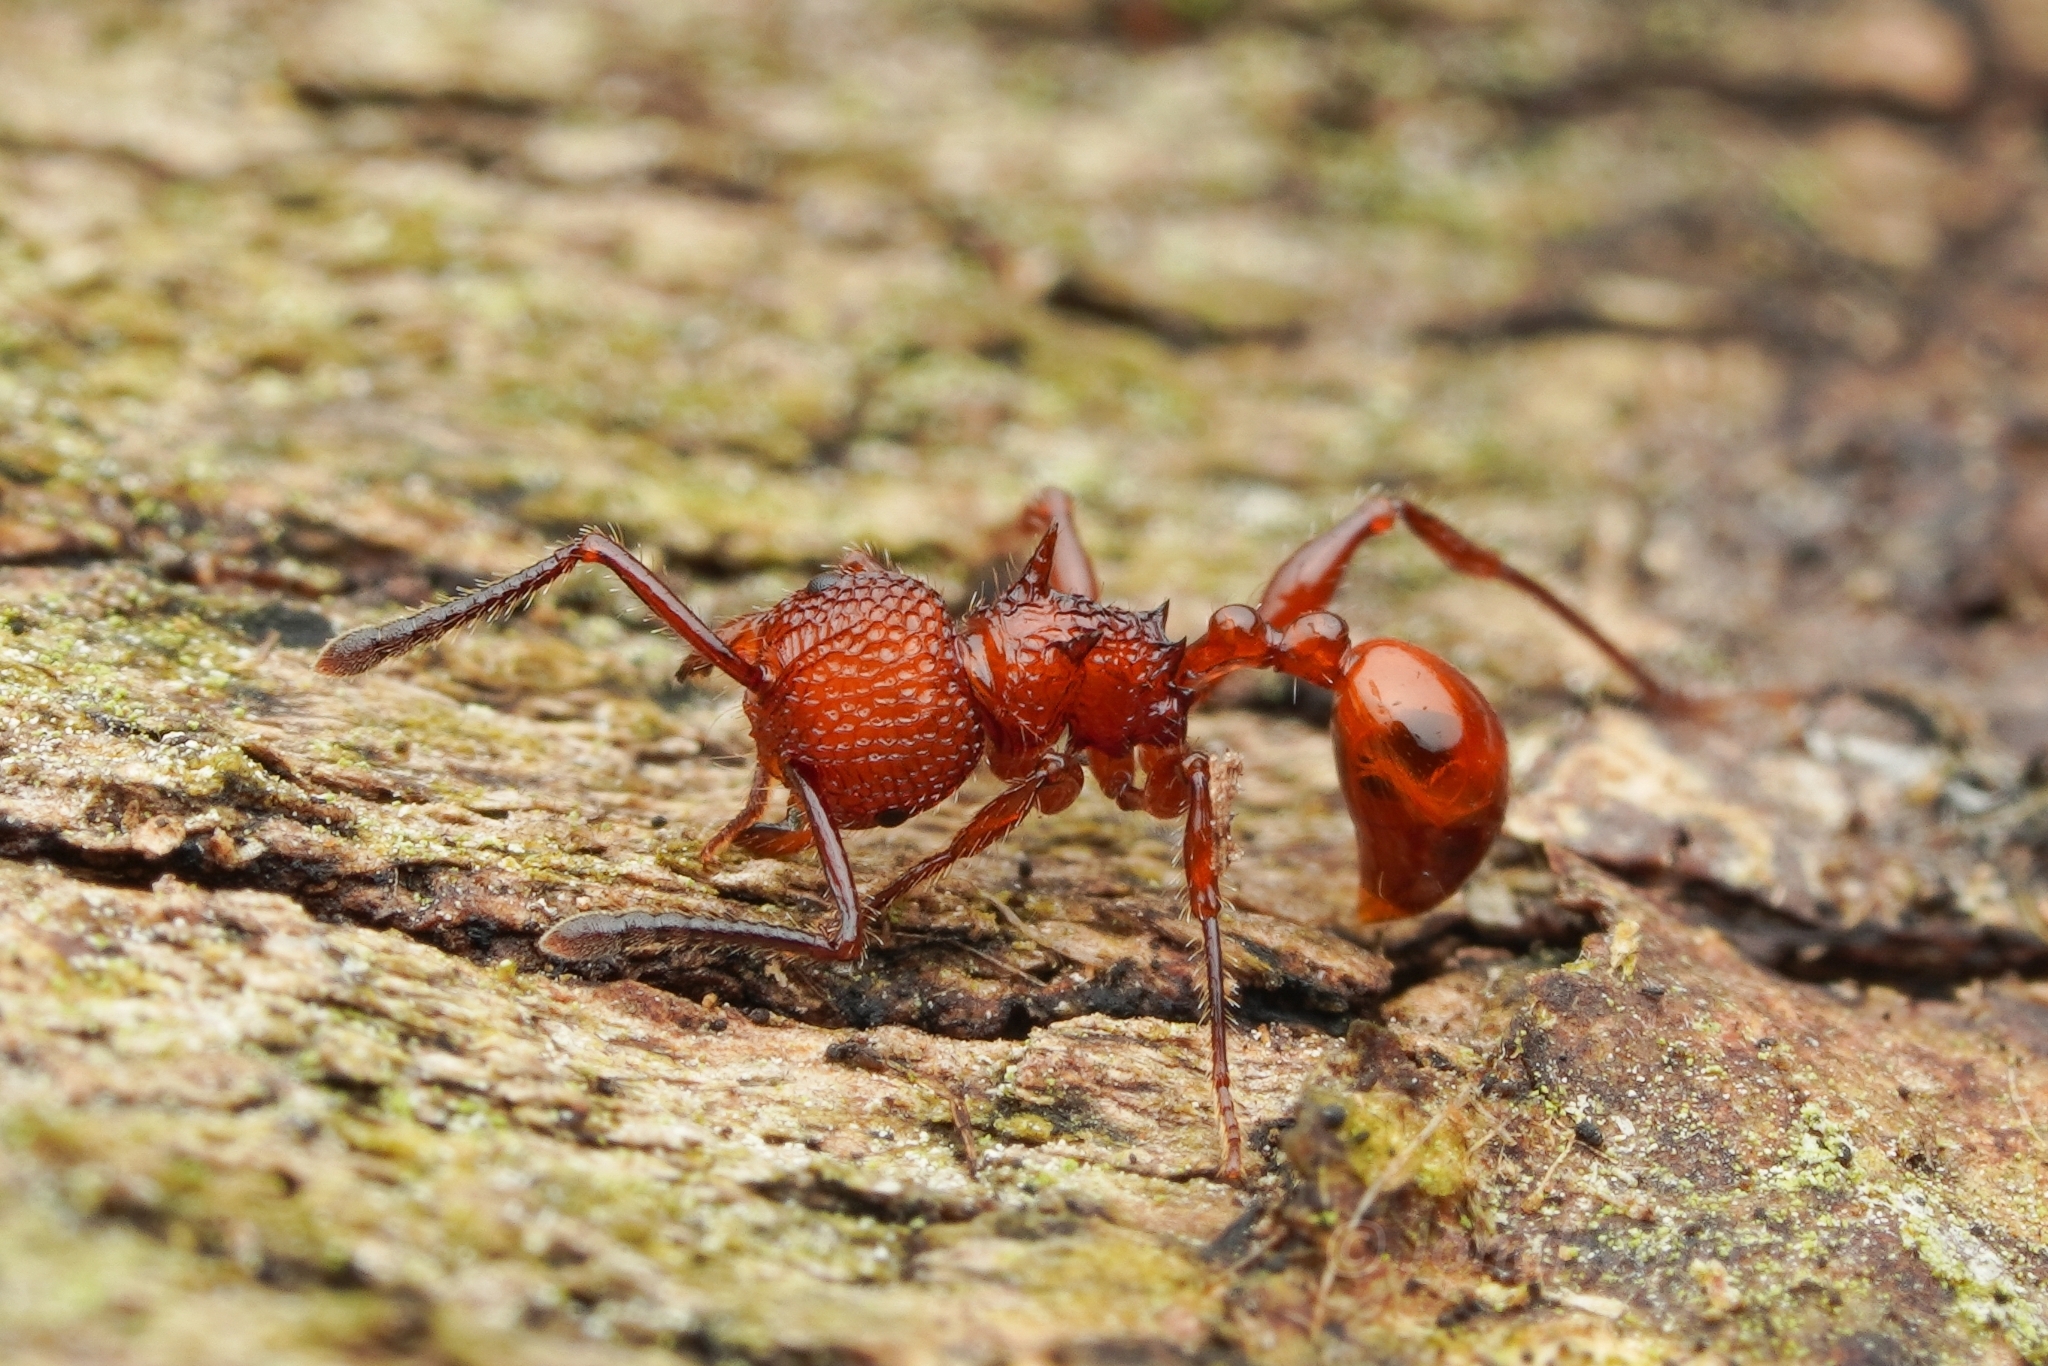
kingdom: Animalia
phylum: Arthropoda
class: Insecta
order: Hymenoptera
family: Formicidae
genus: Pristomyrmex
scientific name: Pristomyrmex trachylissus
